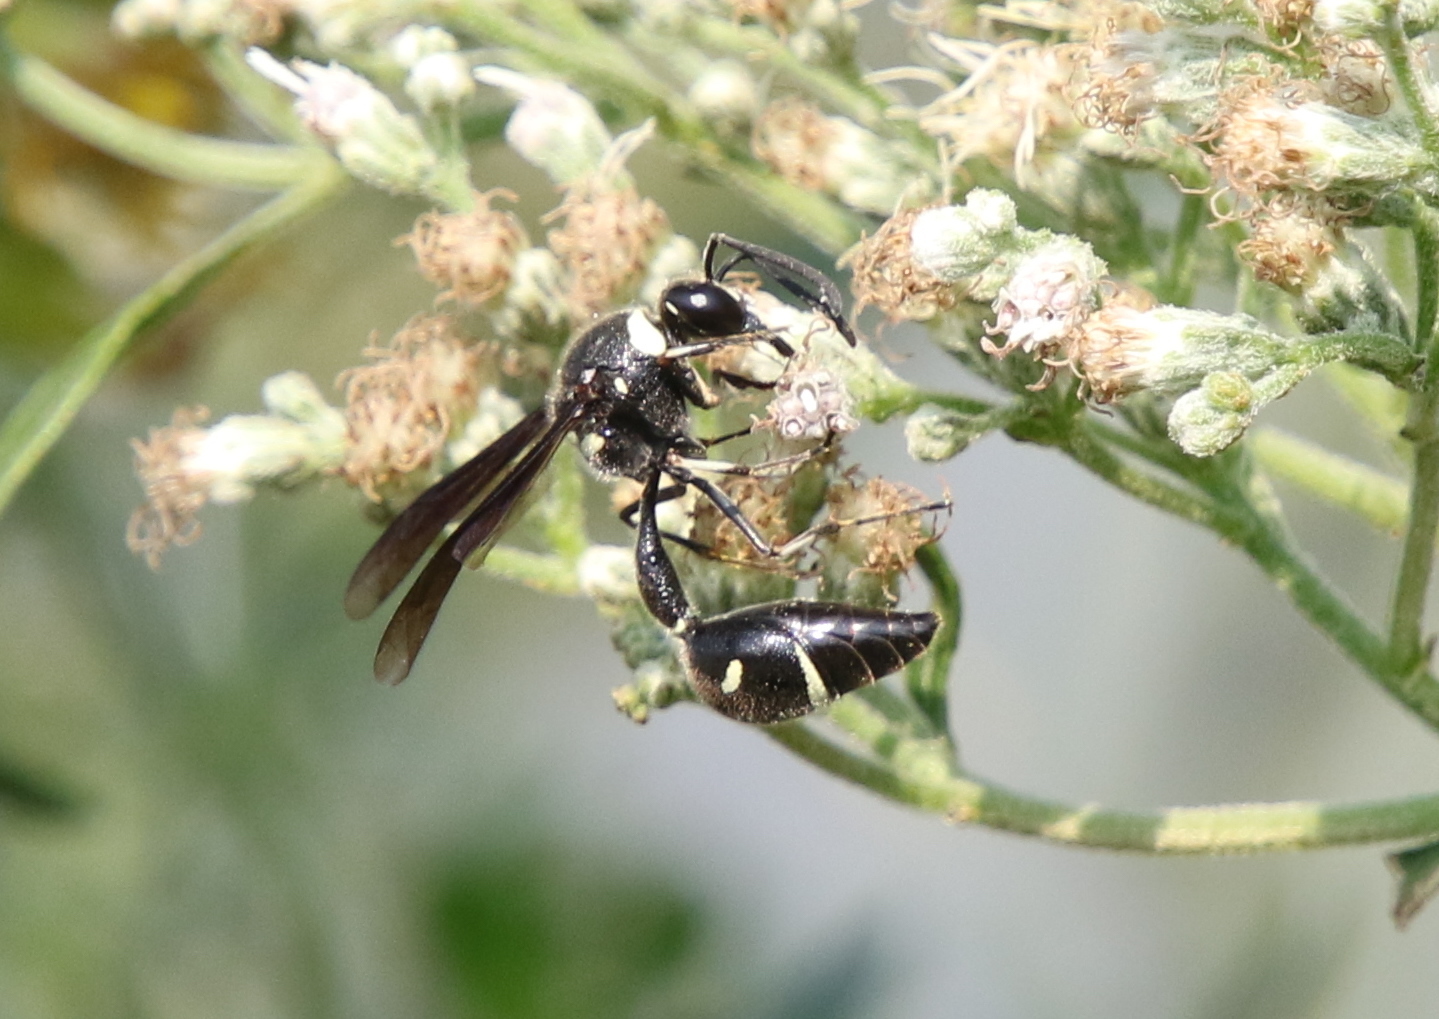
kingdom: Animalia
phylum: Arthropoda
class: Insecta
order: Hymenoptera
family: Vespidae
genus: Eumenes
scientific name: Eumenes fraternus
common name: Fraternal potter wasp
